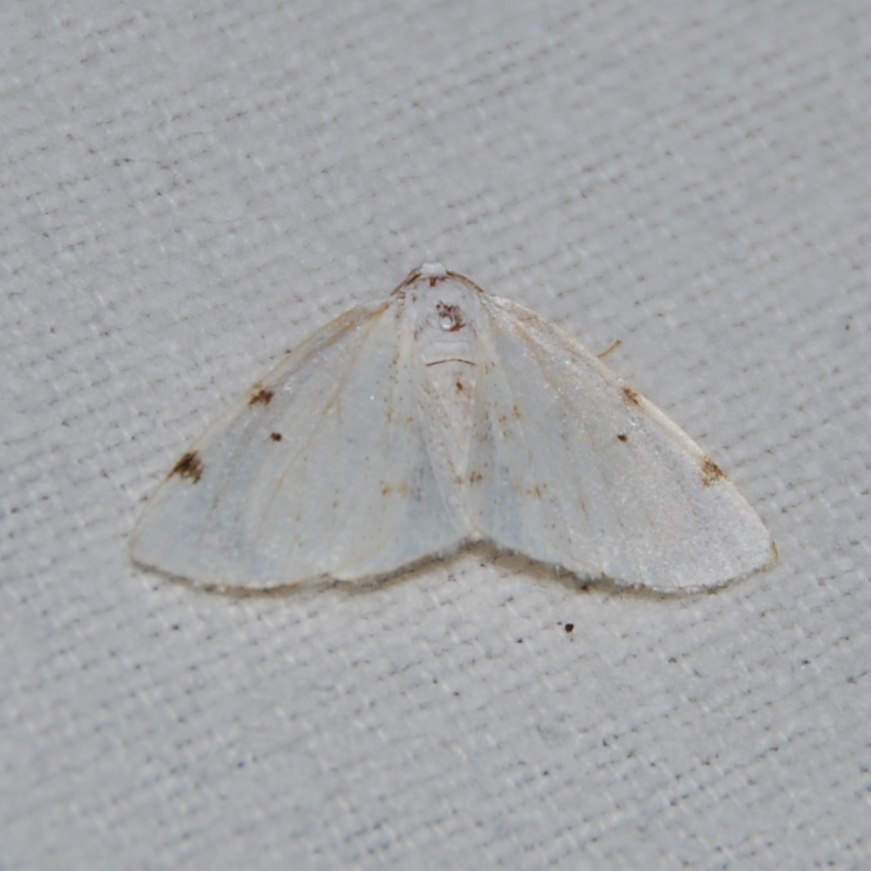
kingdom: Animalia
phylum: Arthropoda
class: Insecta
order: Lepidoptera
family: Geometridae
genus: Lomographa
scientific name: Lomographa bimaculata
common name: White-pinion spotted
